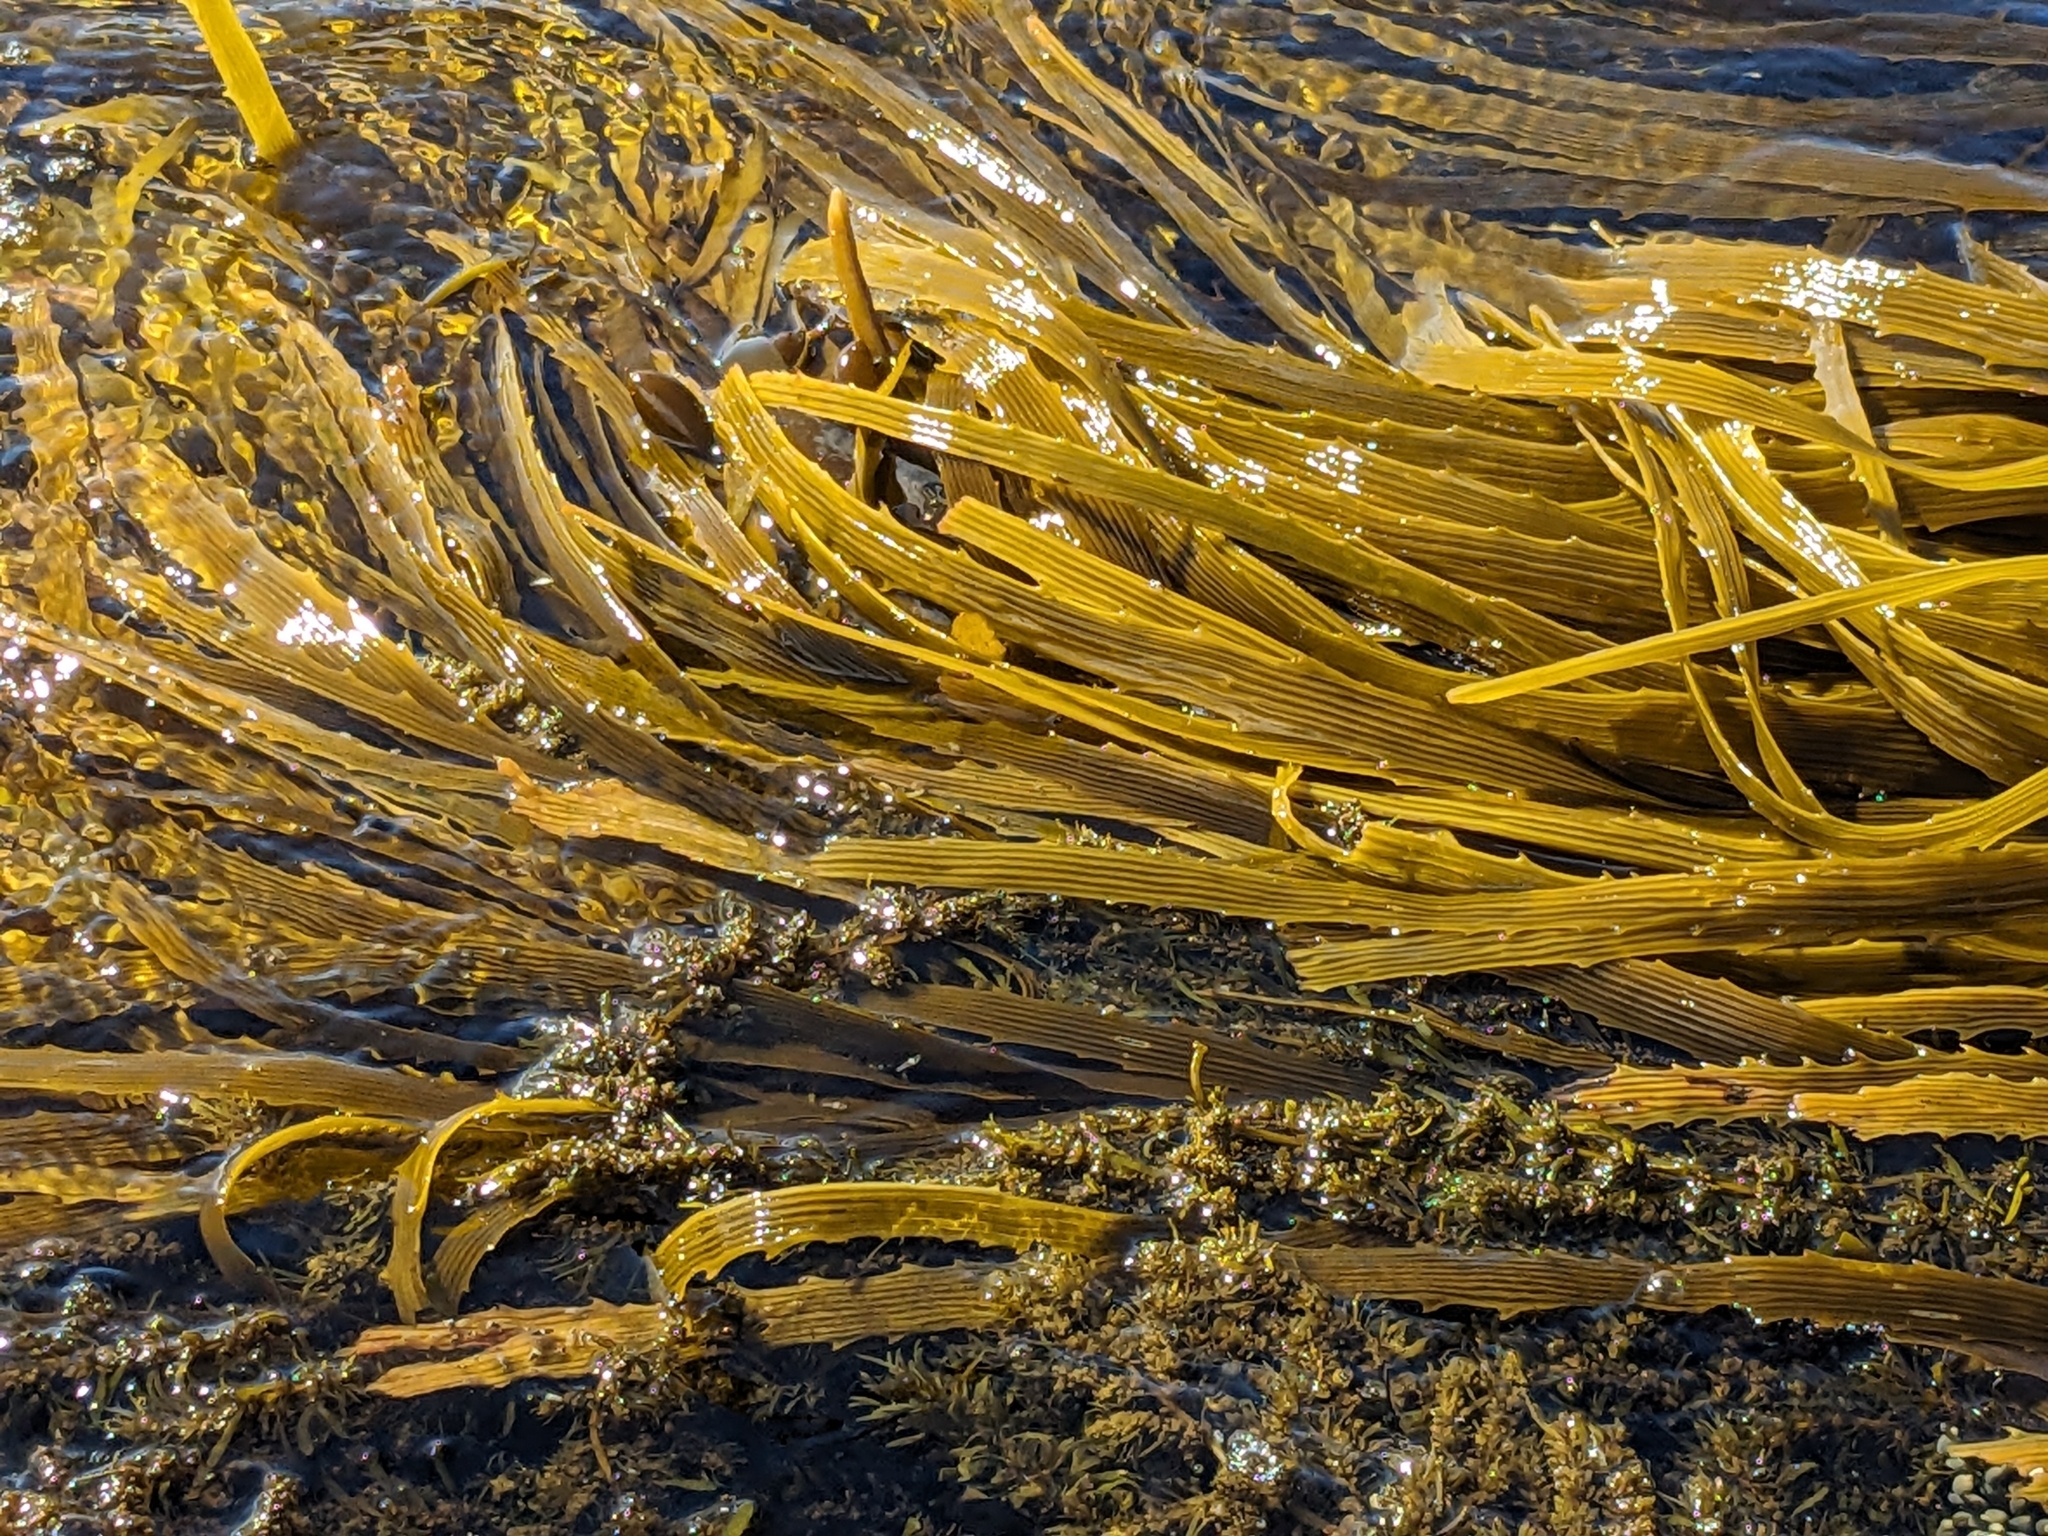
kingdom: Chromista
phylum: Ochrophyta
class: Phaeophyceae
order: Laminariales
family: Lessoniaceae
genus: Lessonia
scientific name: Lessonia corrugata
